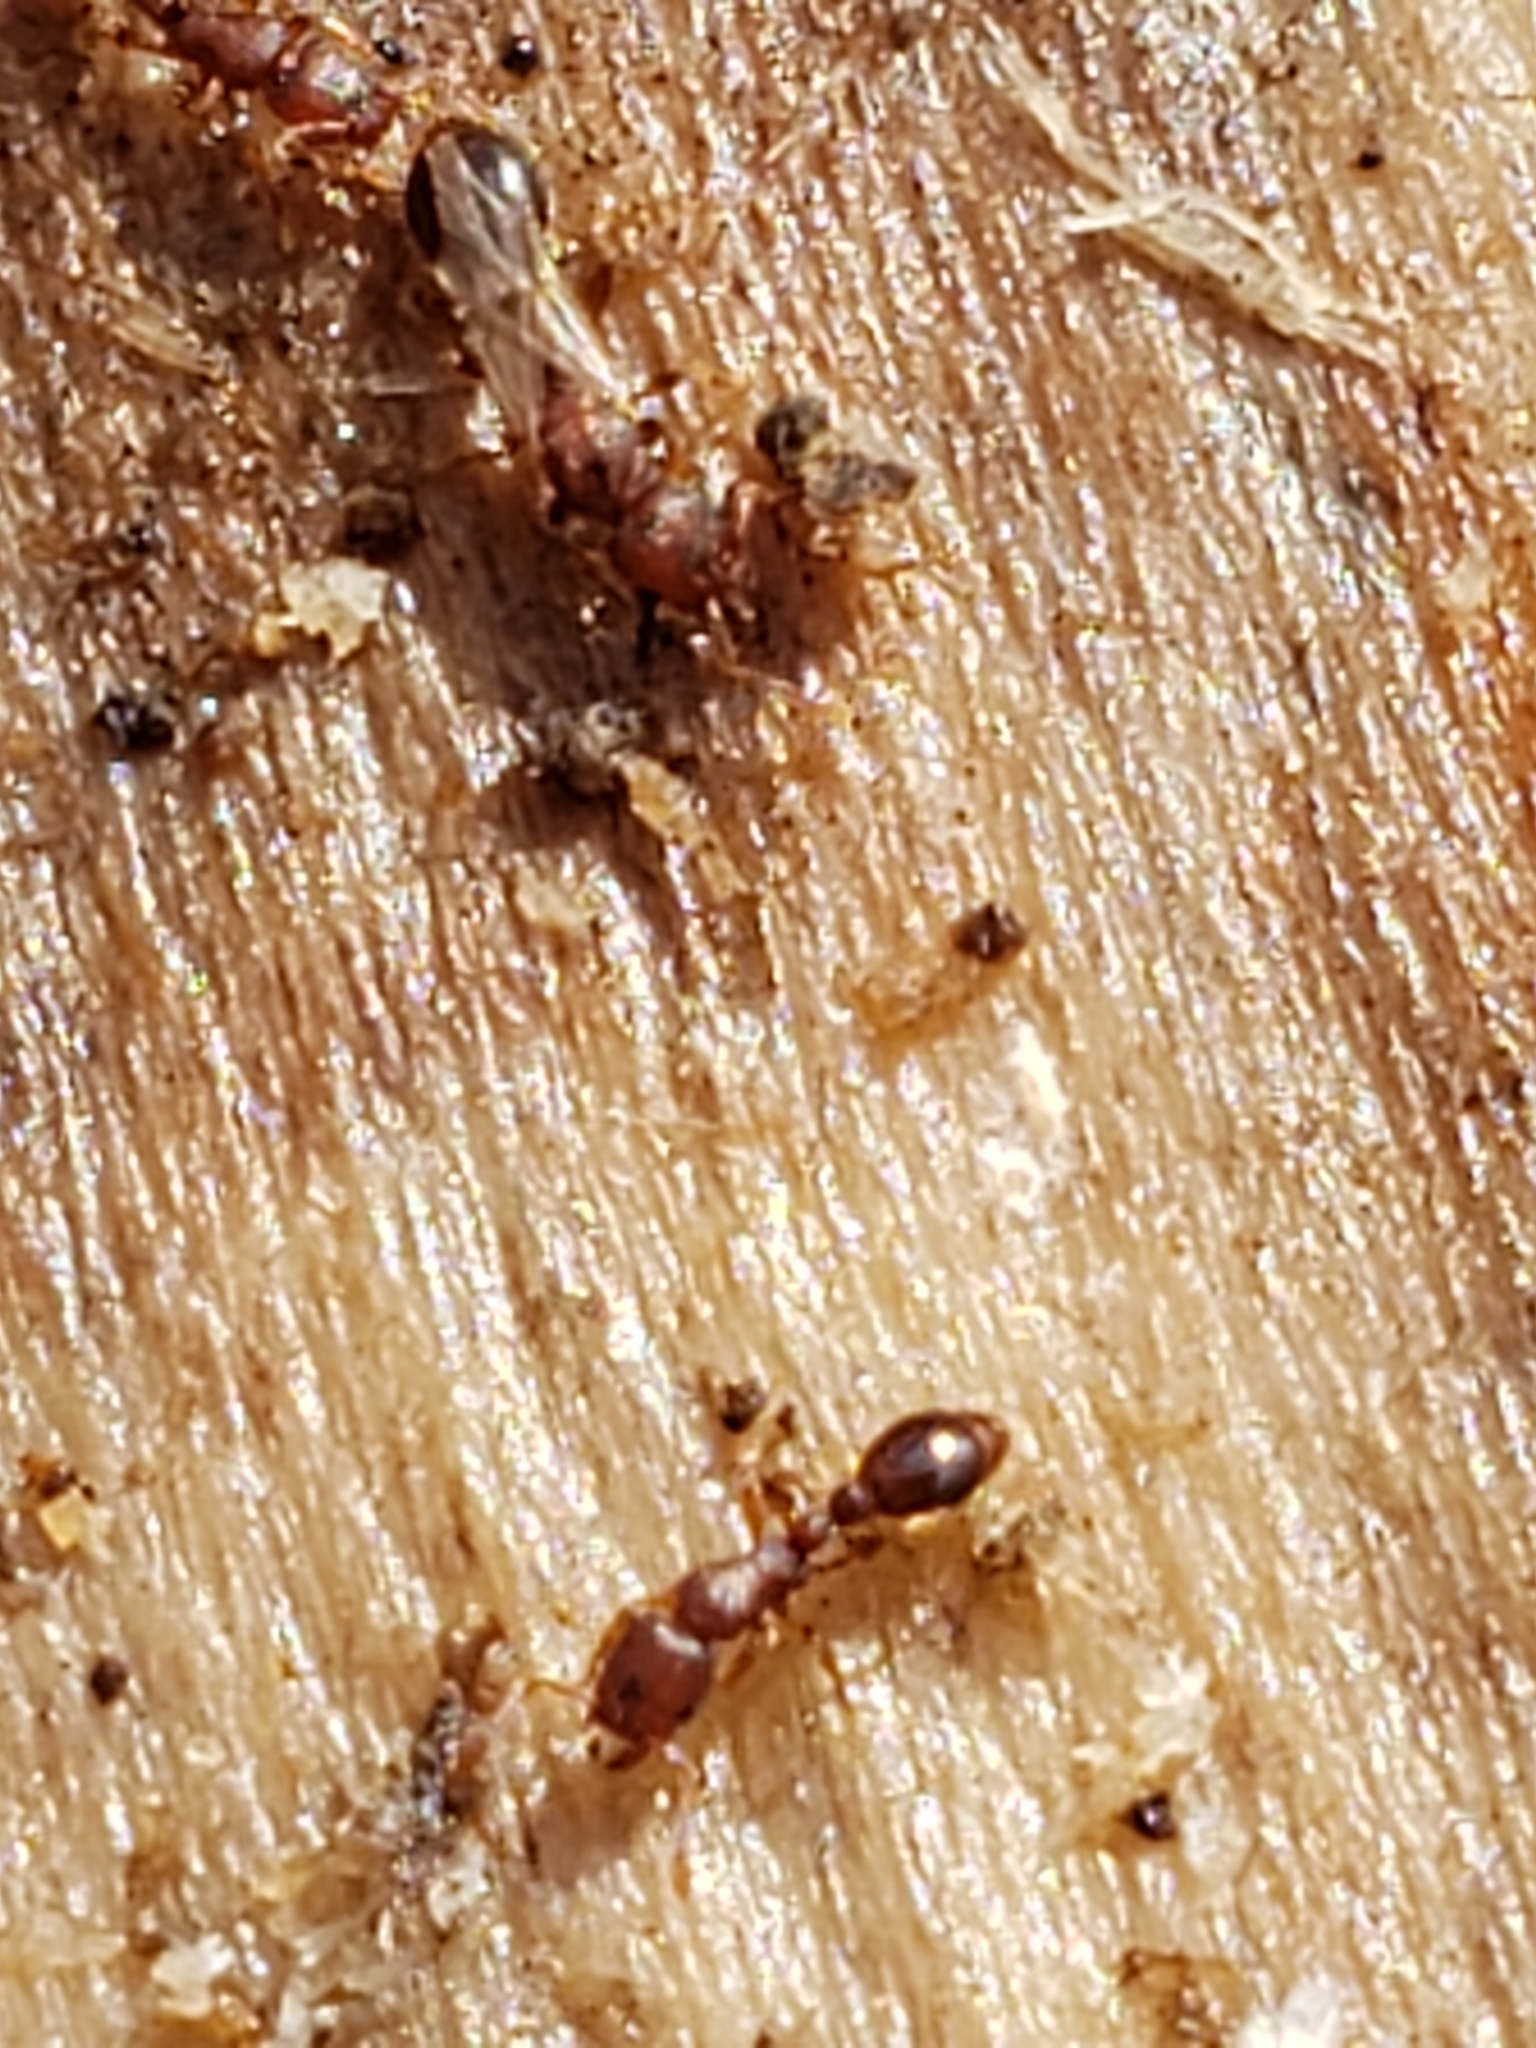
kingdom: Animalia
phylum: Arthropoda
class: Insecta
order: Hymenoptera
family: Formicidae
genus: Vollenhovia
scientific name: Vollenhovia emeryi
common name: Ant
